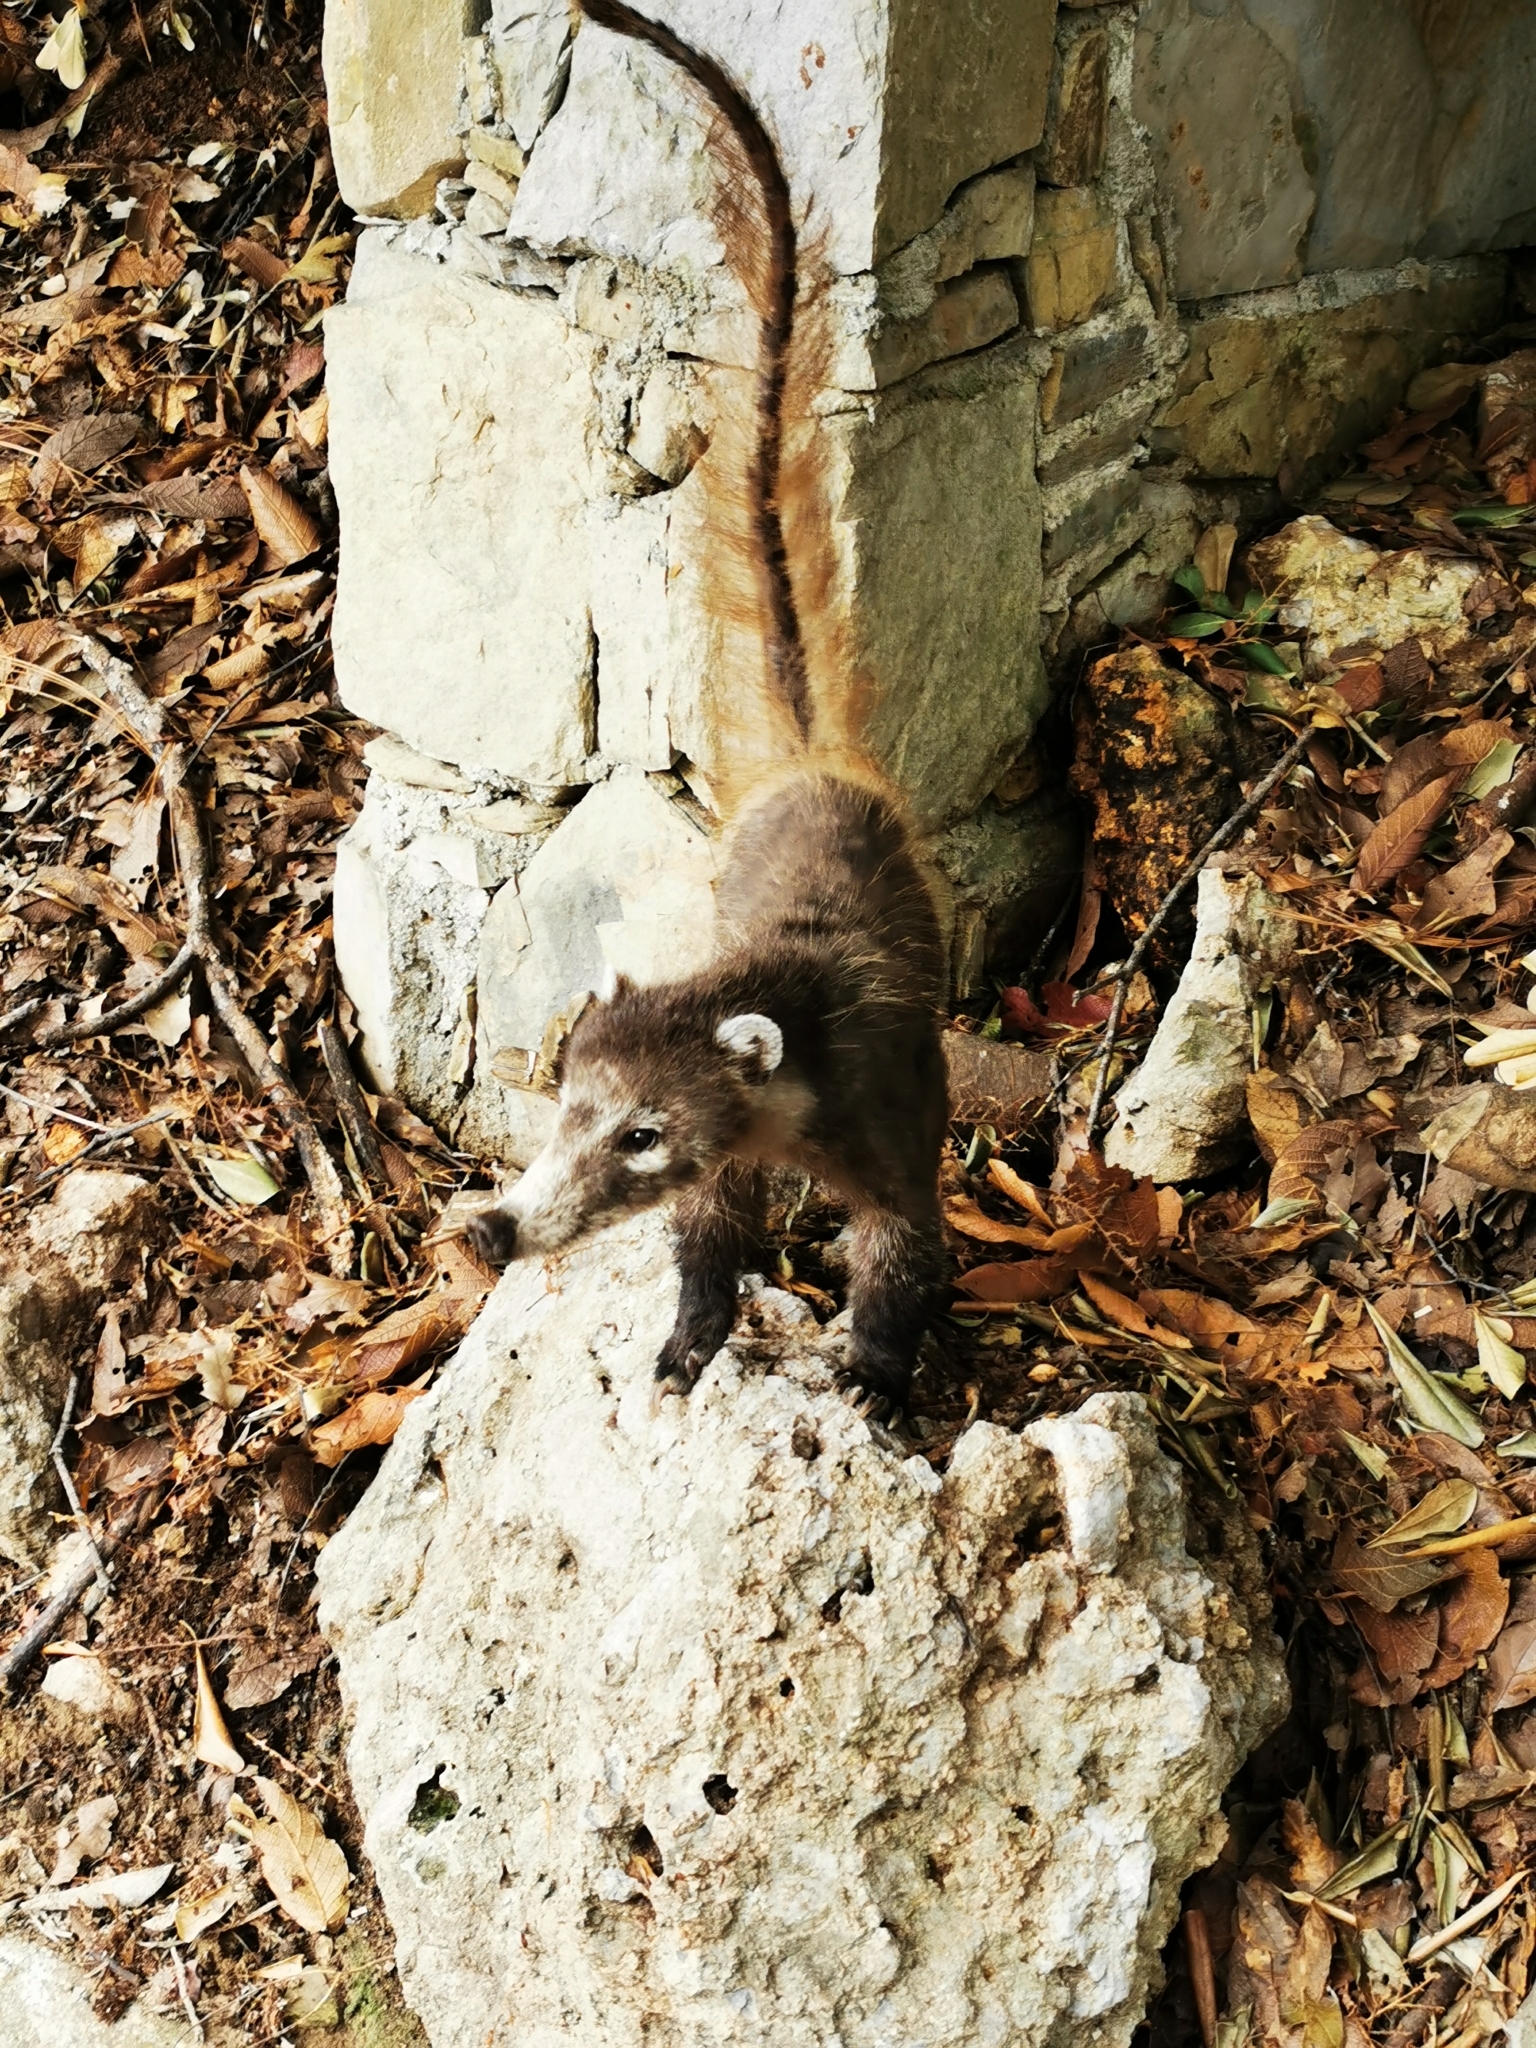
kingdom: Animalia
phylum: Chordata
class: Mammalia
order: Carnivora
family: Procyonidae
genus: Nasua
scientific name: Nasua narica
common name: White-nosed coati
